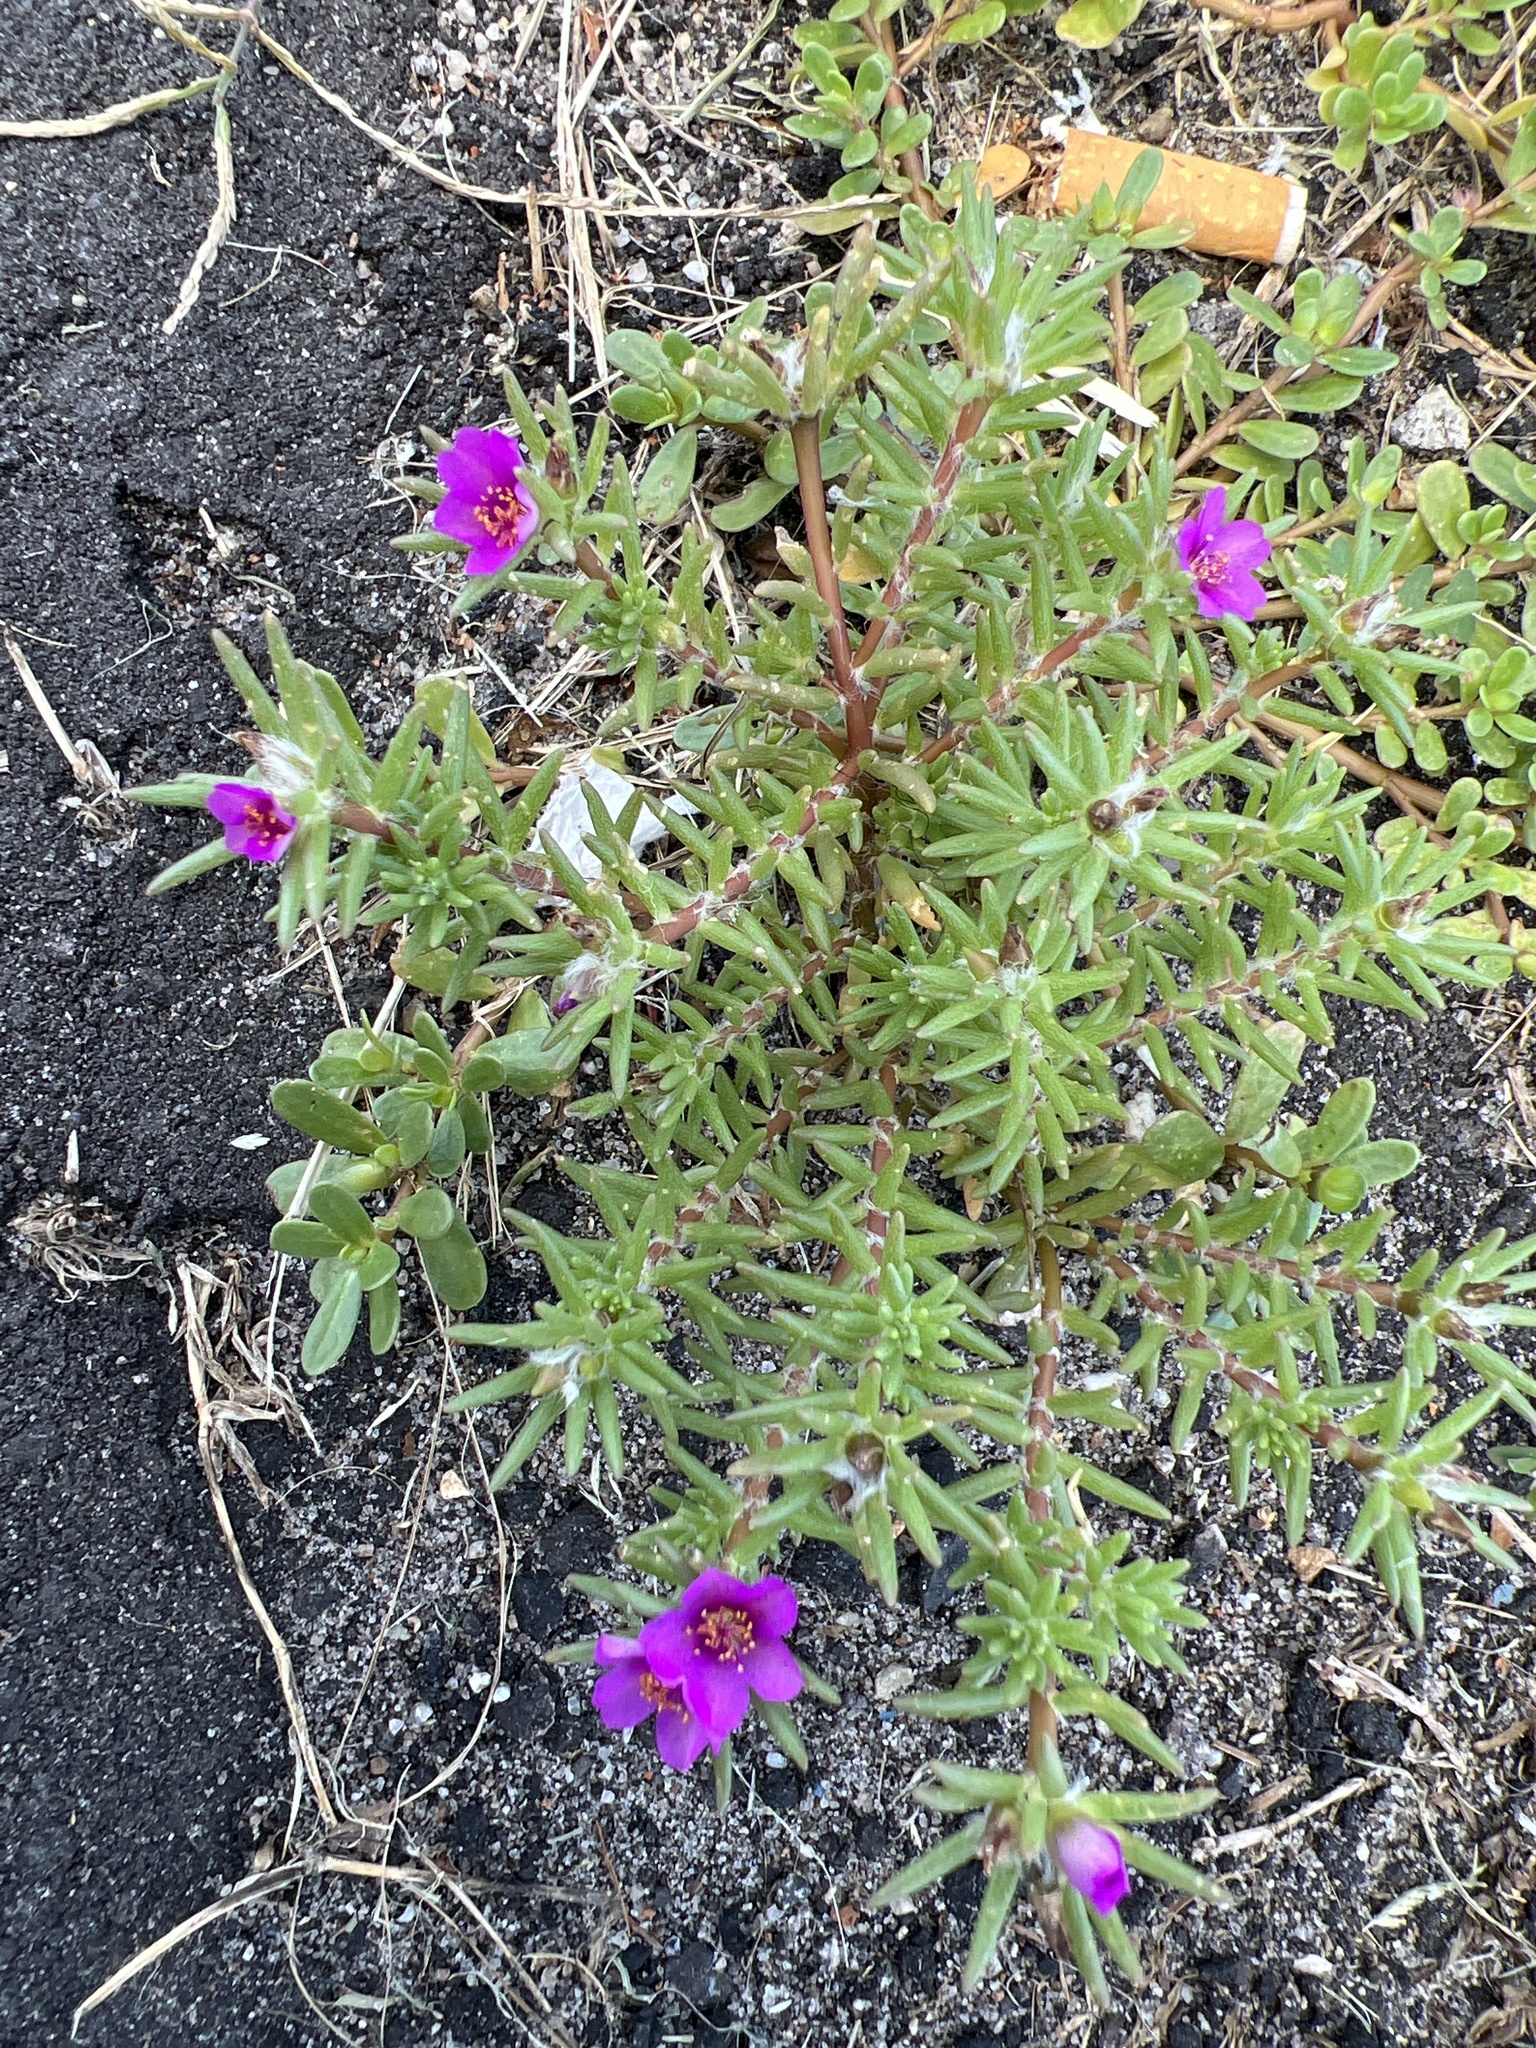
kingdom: Plantae
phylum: Tracheophyta
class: Magnoliopsida
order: Caryophyllales
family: Portulacaceae
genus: Portulaca
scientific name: Portulaca pilosa
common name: Kiss me quick
